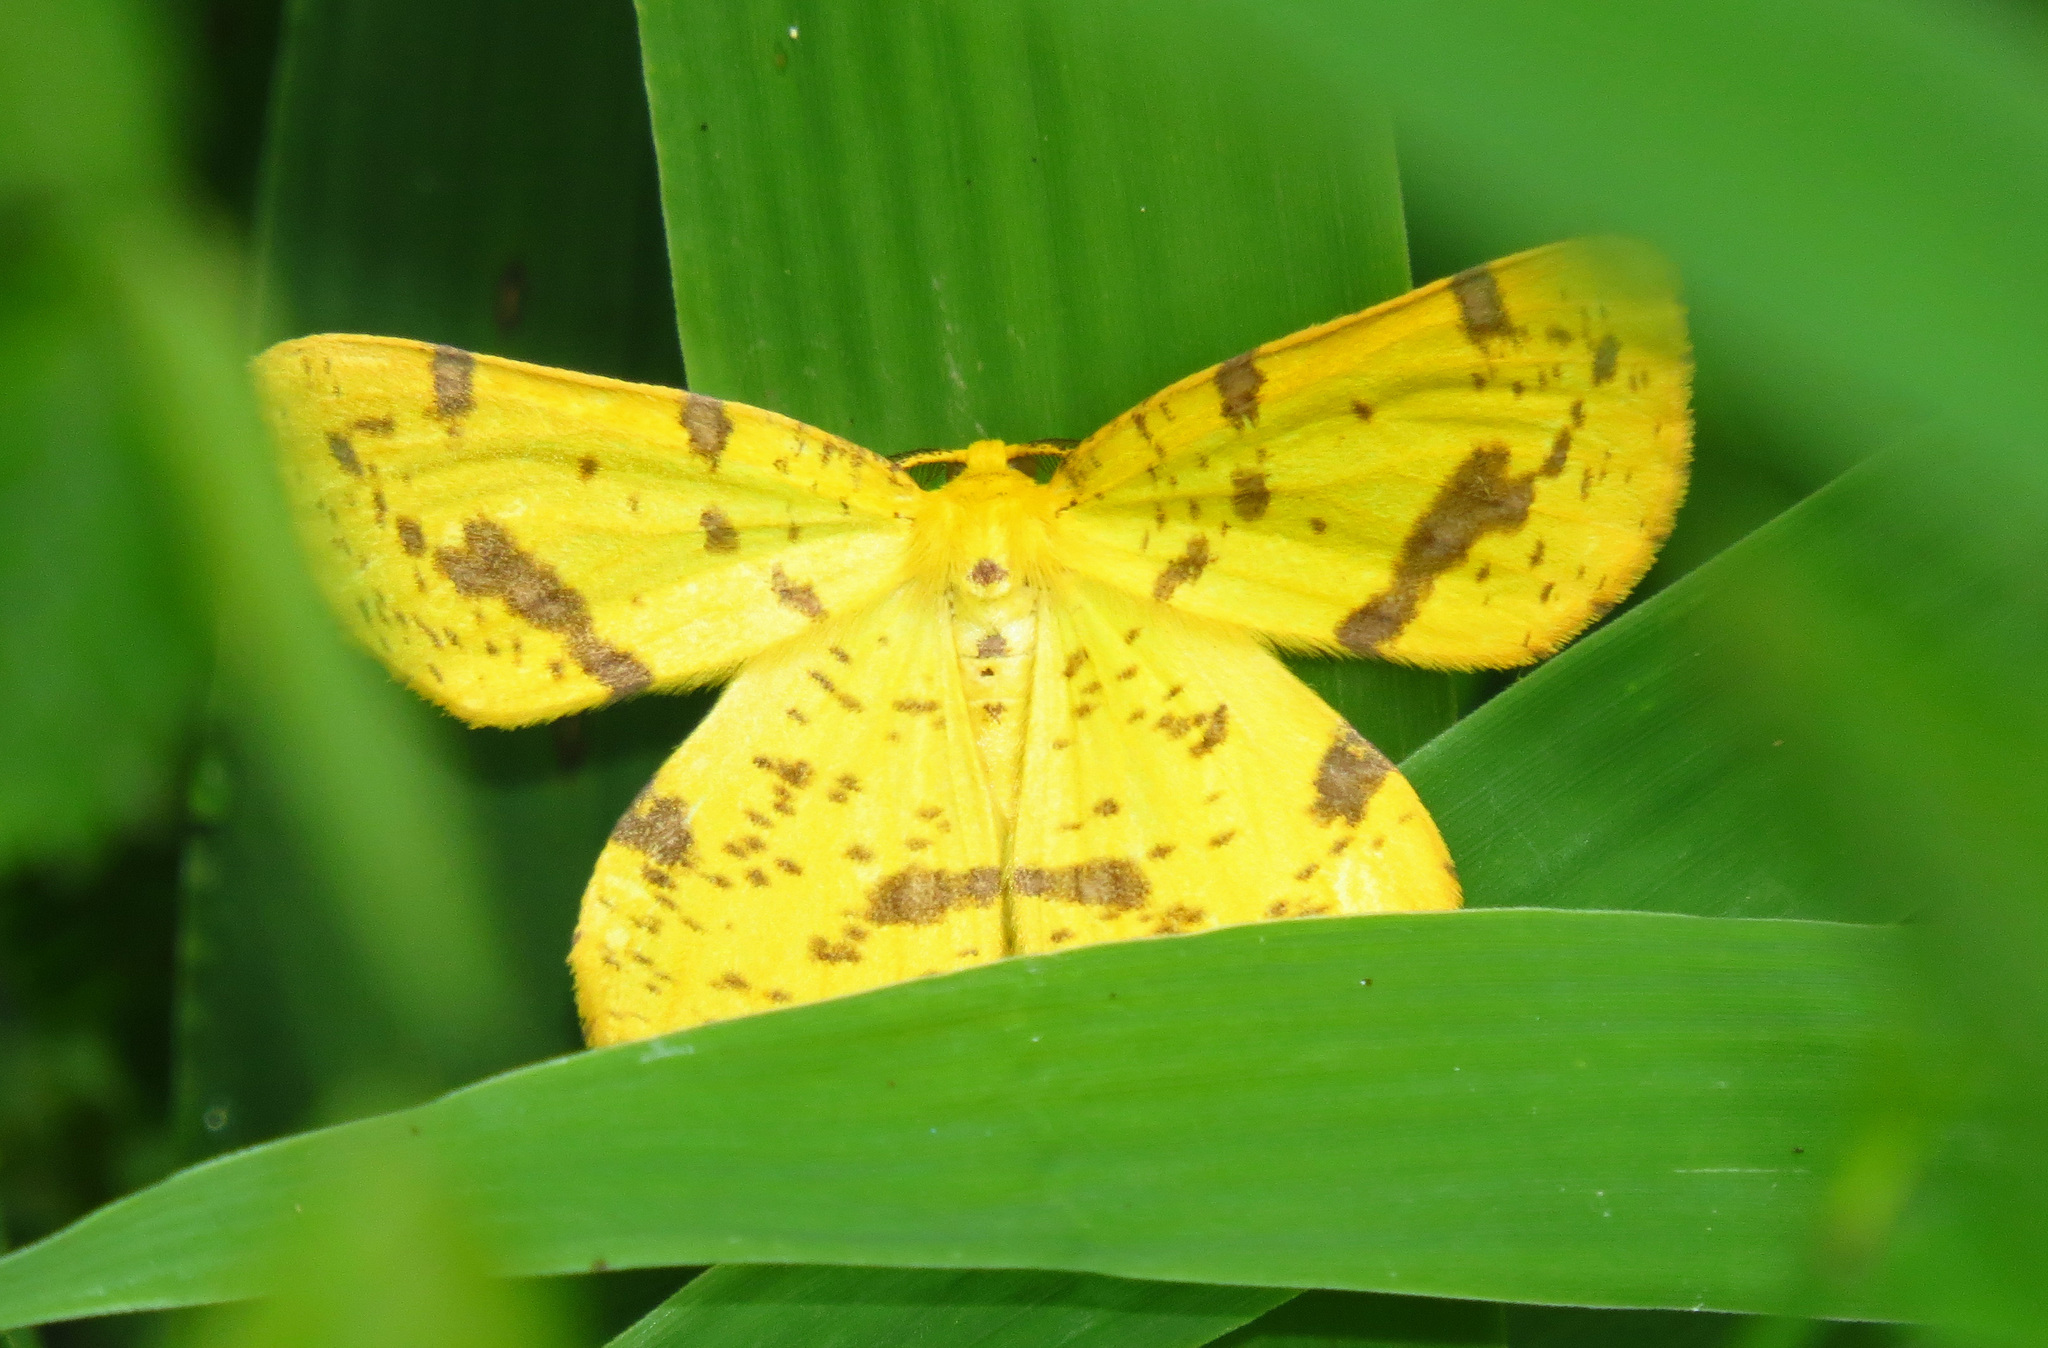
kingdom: Animalia
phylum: Arthropoda
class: Insecta
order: Lepidoptera
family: Geometridae
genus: Xanthotype
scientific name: Xanthotype
